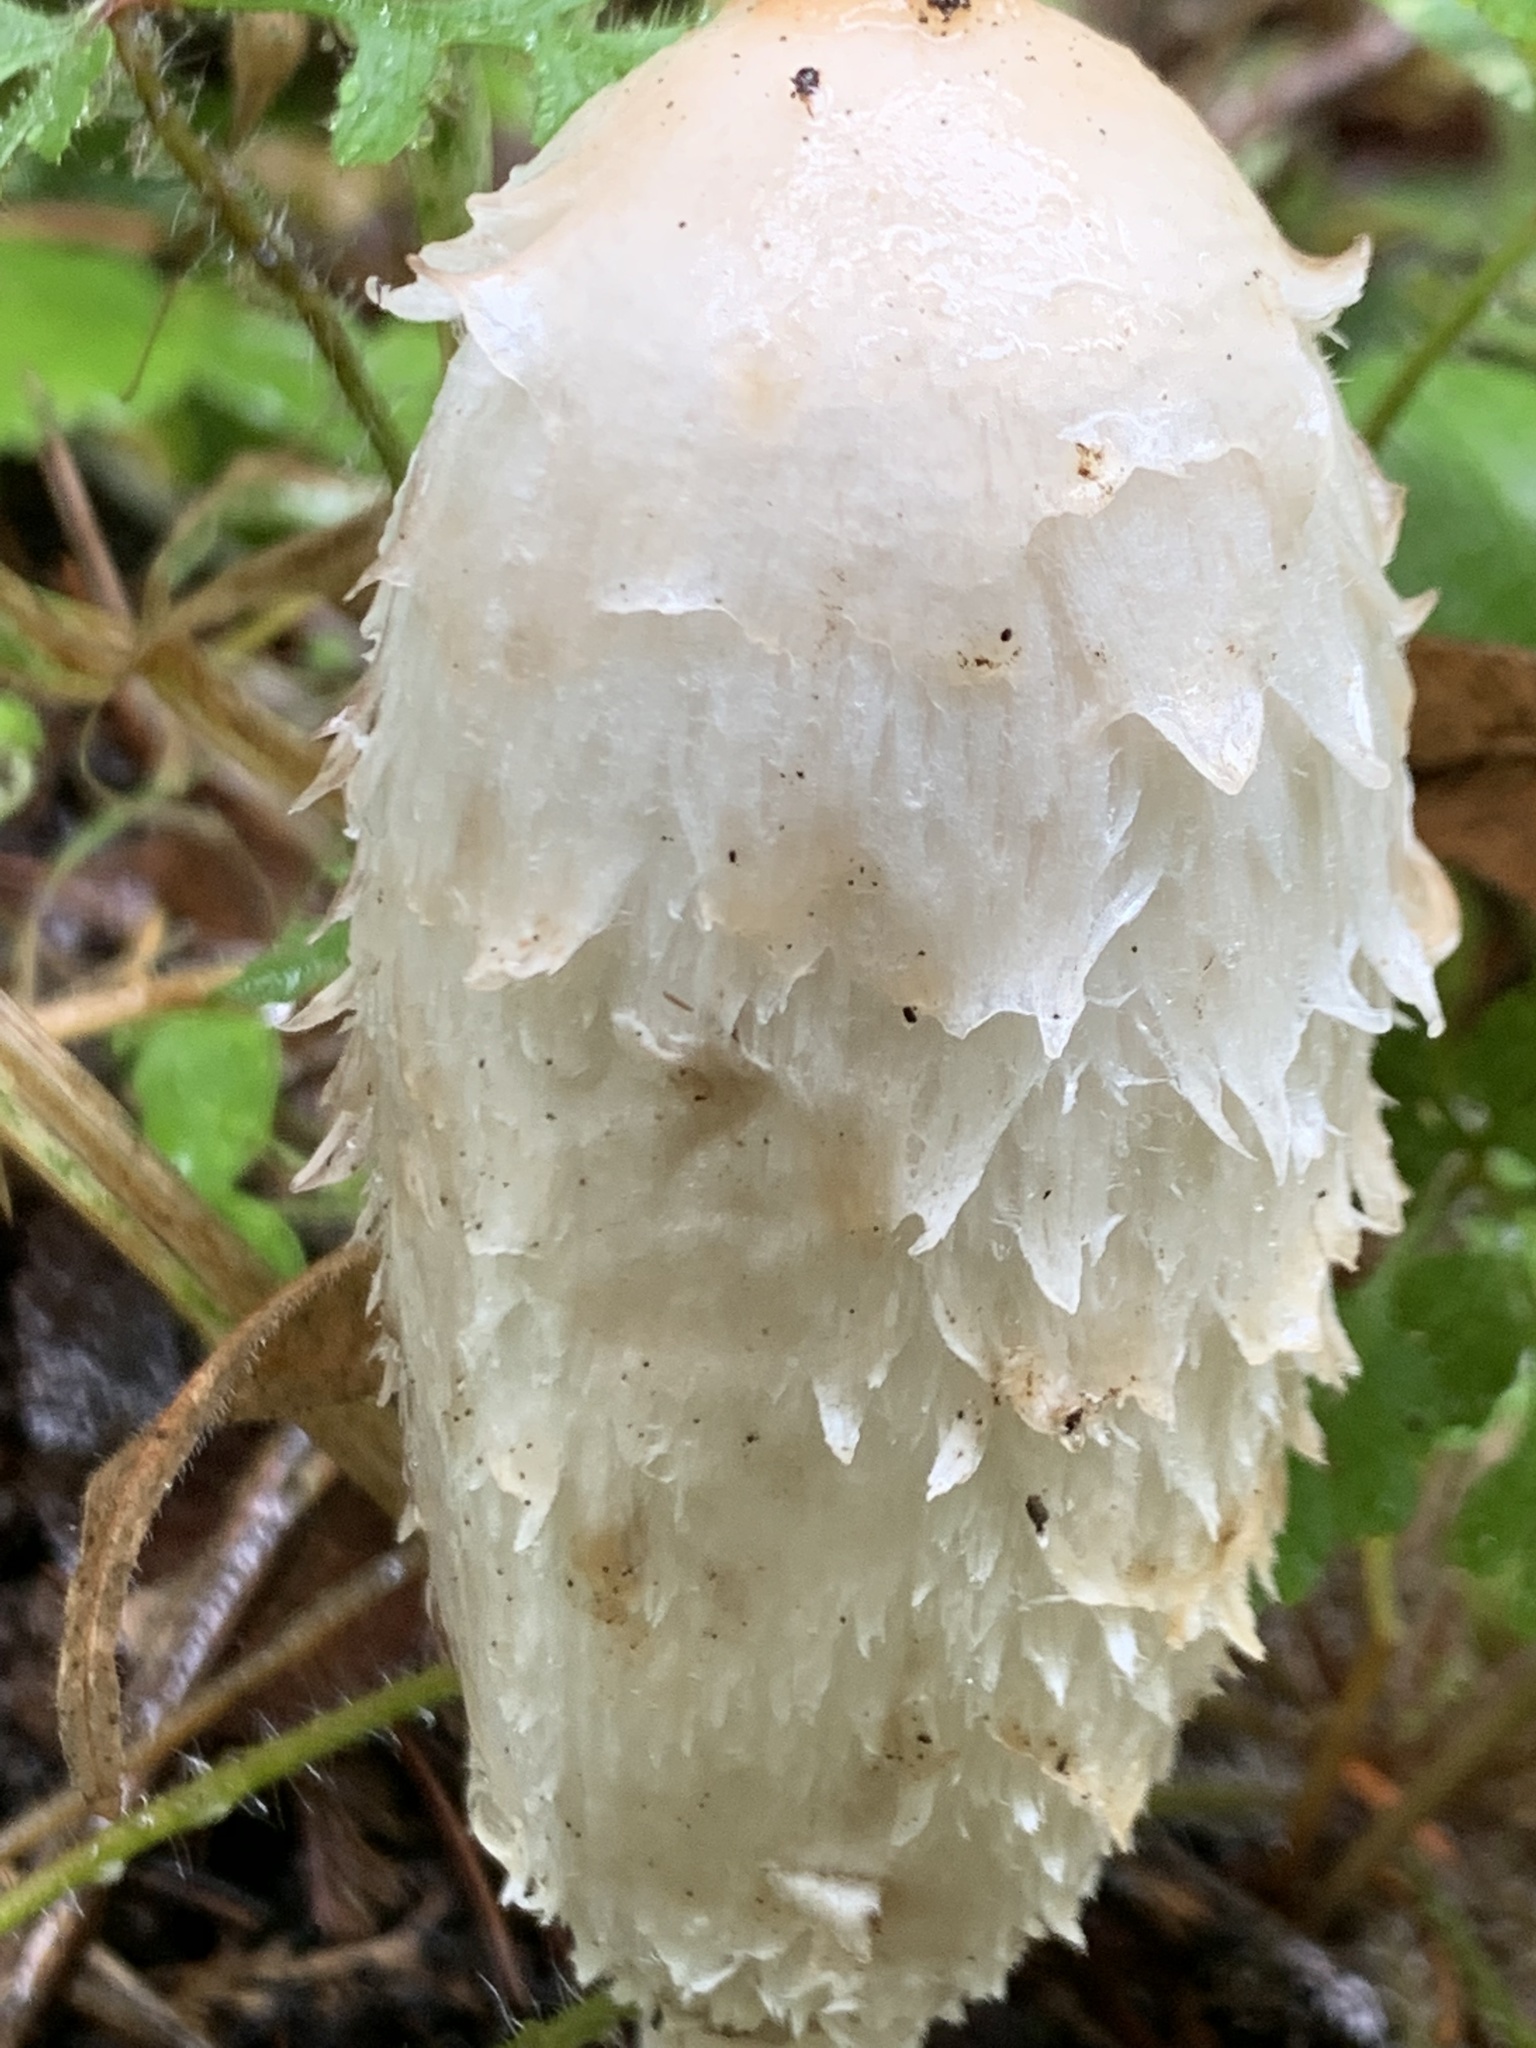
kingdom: Fungi
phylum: Basidiomycota
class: Agaricomycetes
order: Agaricales
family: Agaricaceae
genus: Coprinus
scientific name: Coprinus comatus
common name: Lawyer's wig
